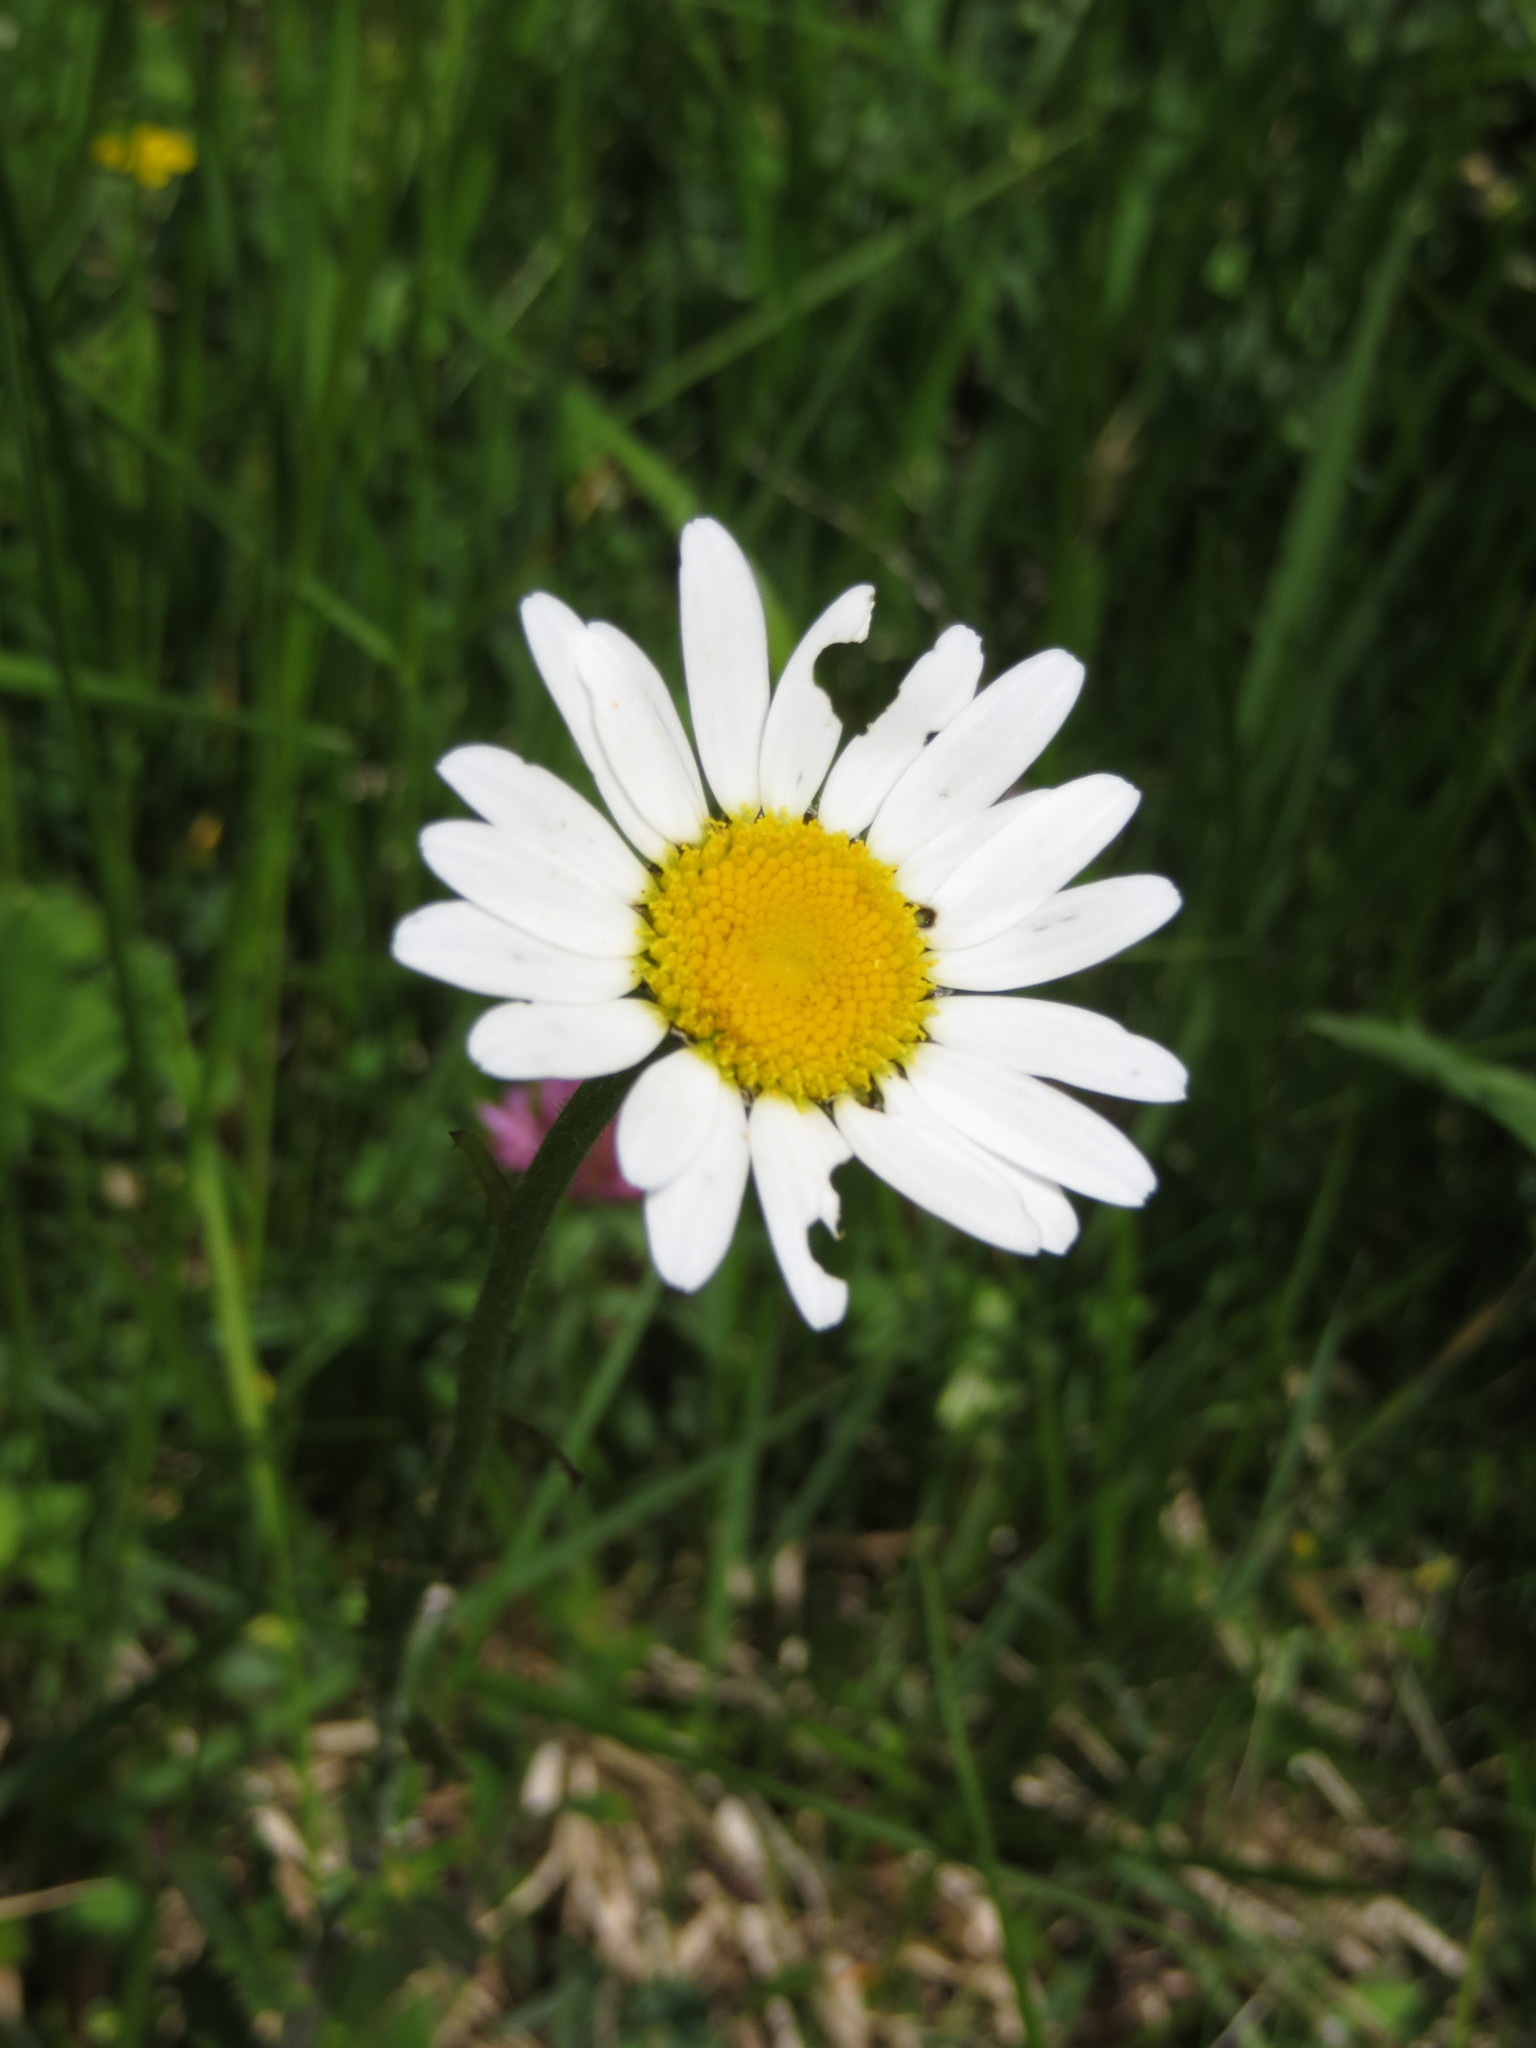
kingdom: Plantae
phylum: Tracheophyta
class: Magnoliopsida
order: Asterales
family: Asteraceae
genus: Leucanthemum
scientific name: Leucanthemum vulgare
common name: Oxeye daisy
